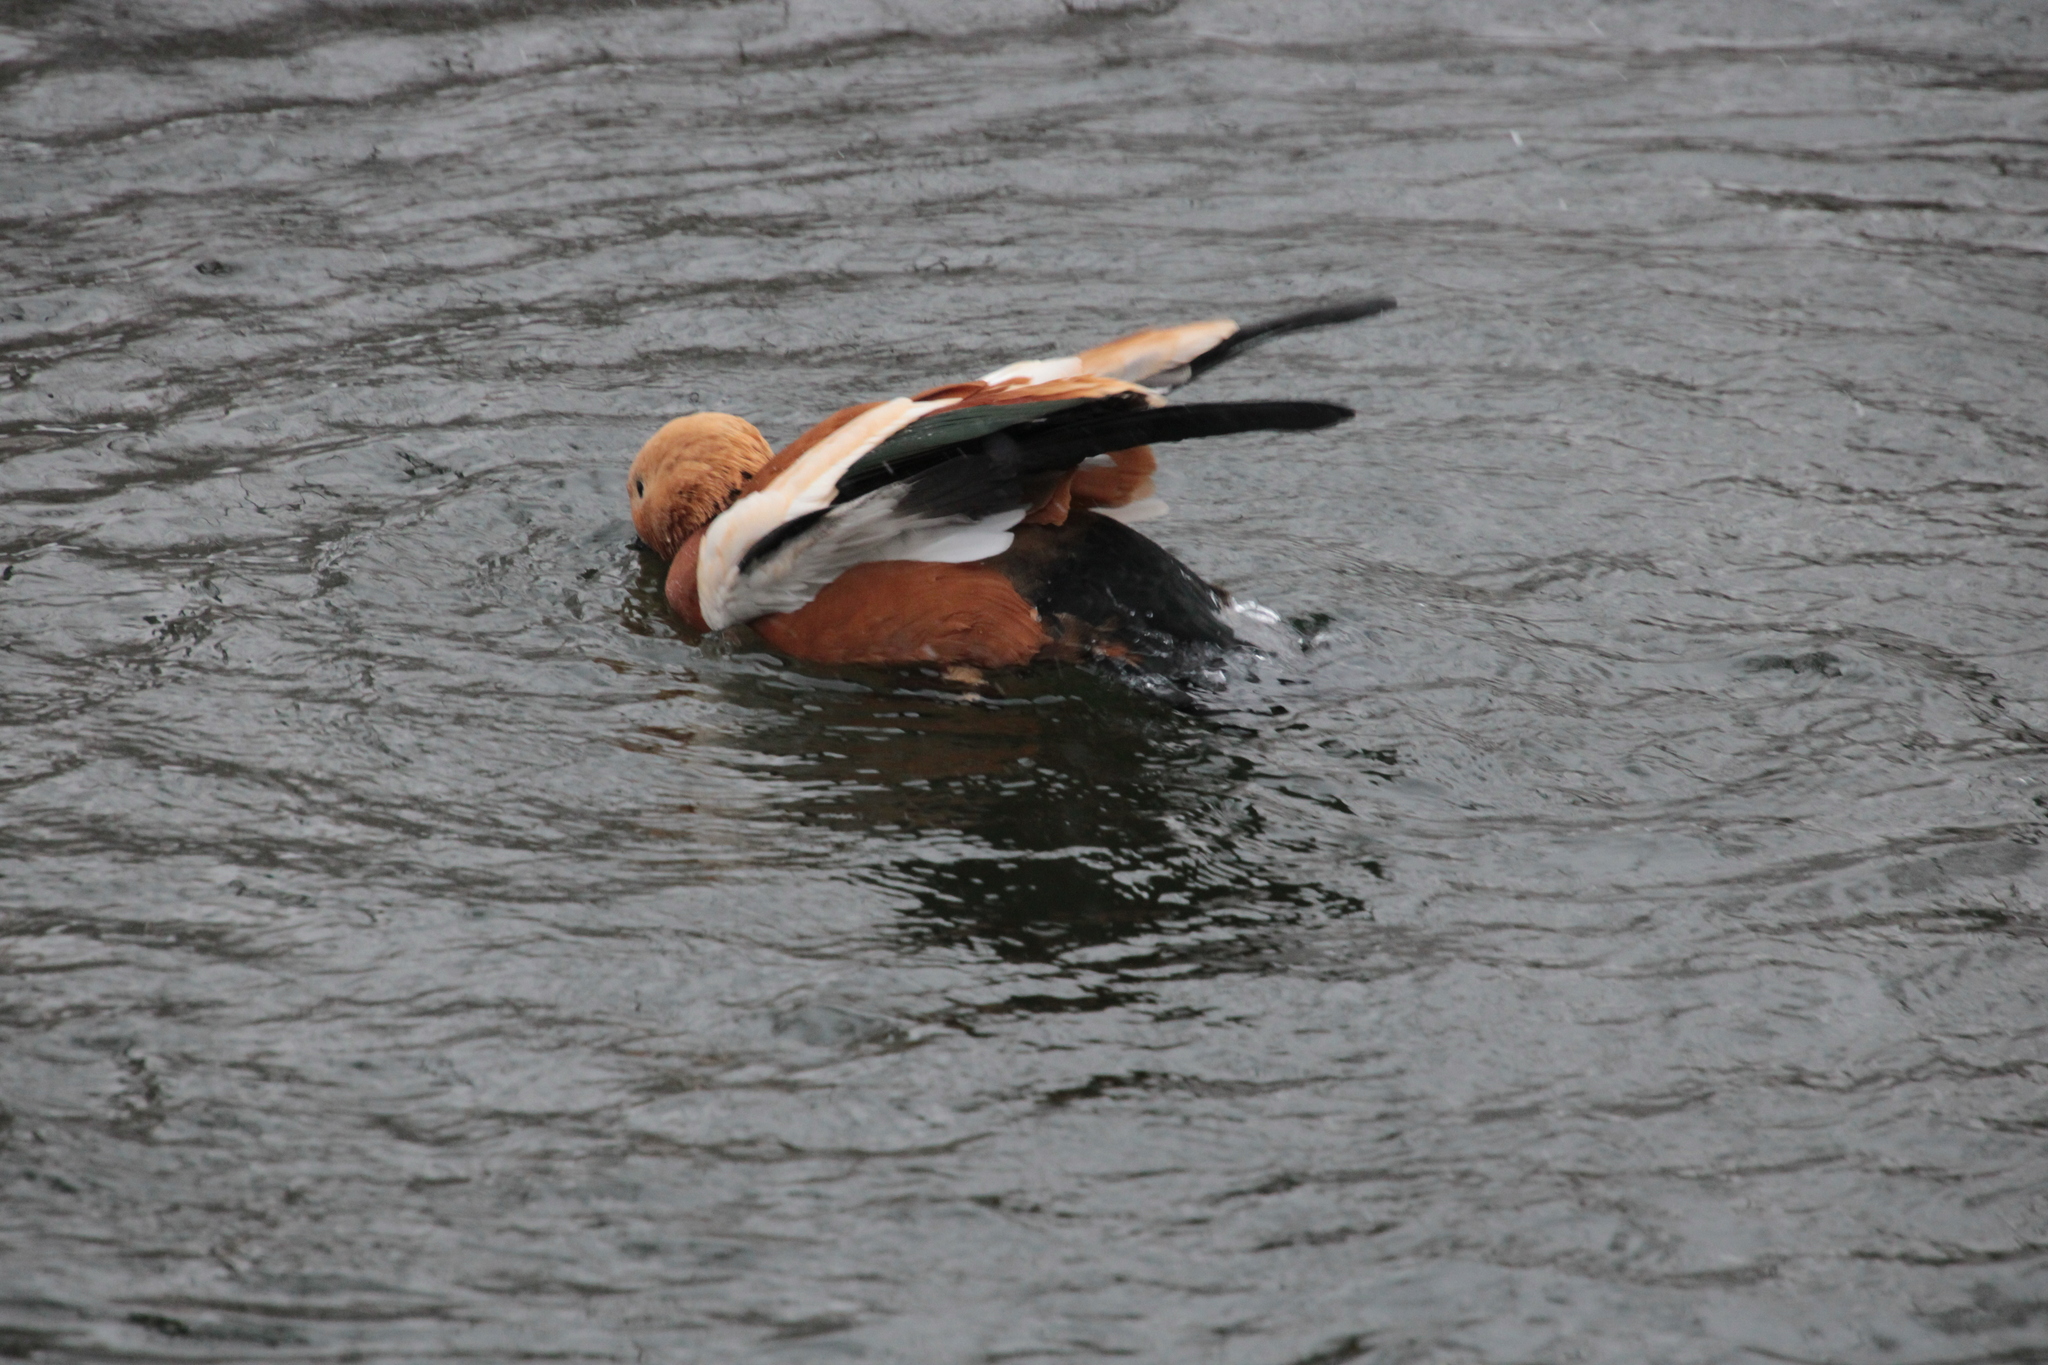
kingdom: Animalia
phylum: Chordata
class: Aves
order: Anseriformes
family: Anatidae
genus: Tadorna
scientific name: Tadorna ferruginea
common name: Ruddy shelduck
